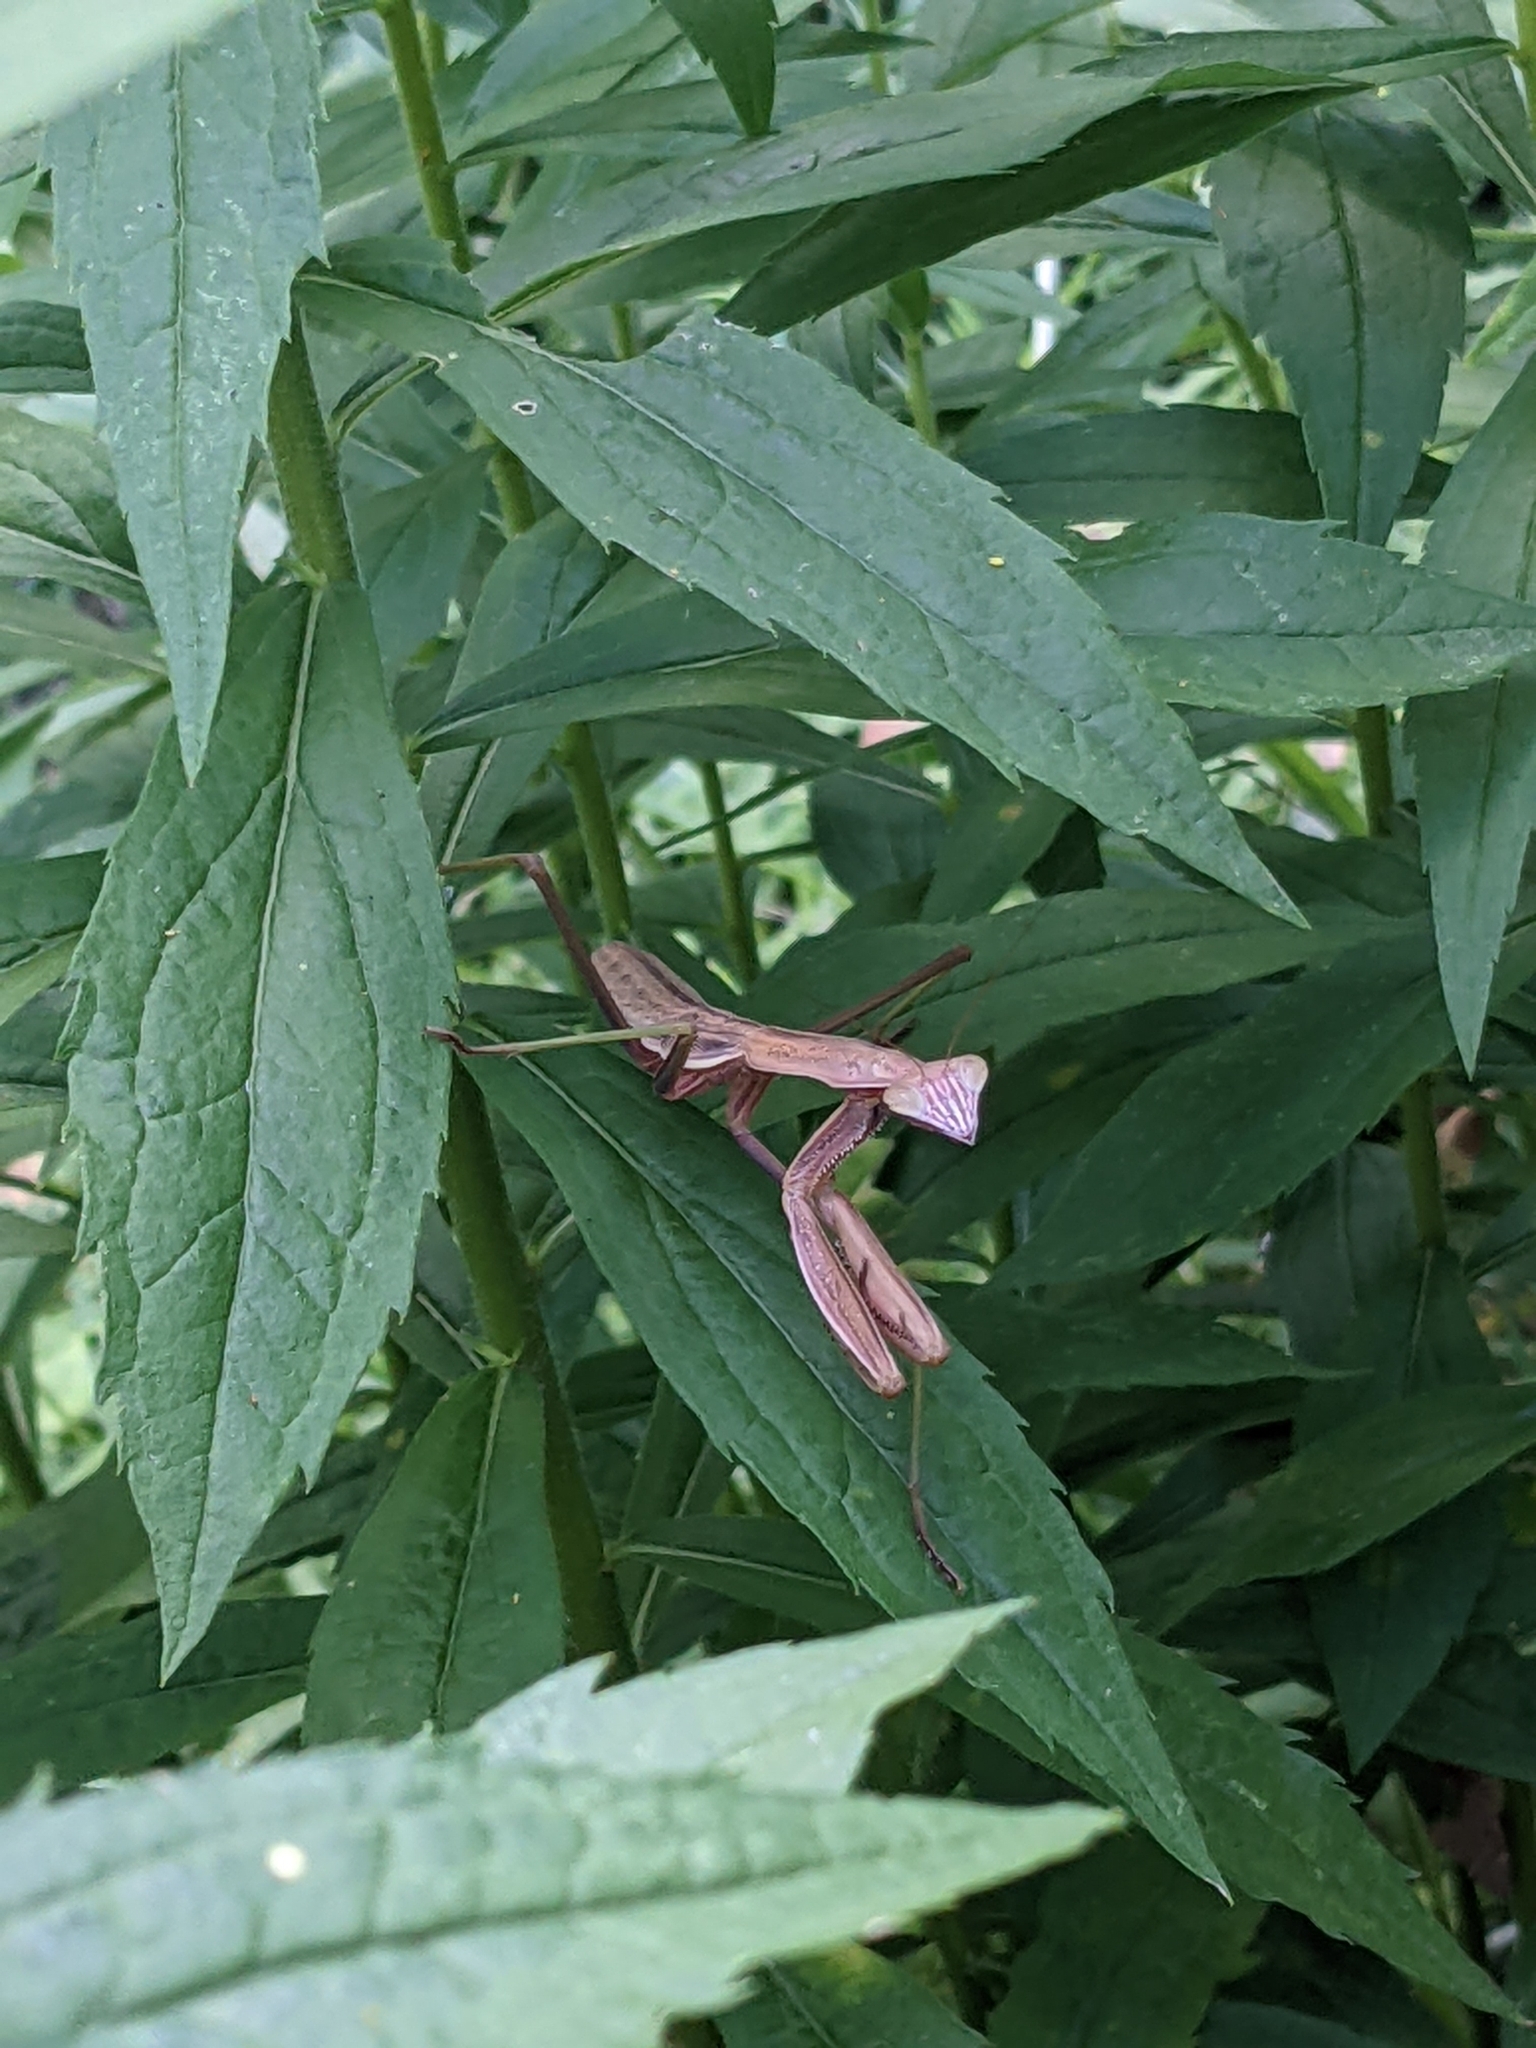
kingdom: Animalia
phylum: Arthropoda
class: Insecta
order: Mantodea
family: Mantidae
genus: Tenodera
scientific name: Tenodera sinensis
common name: Chinese mantis
